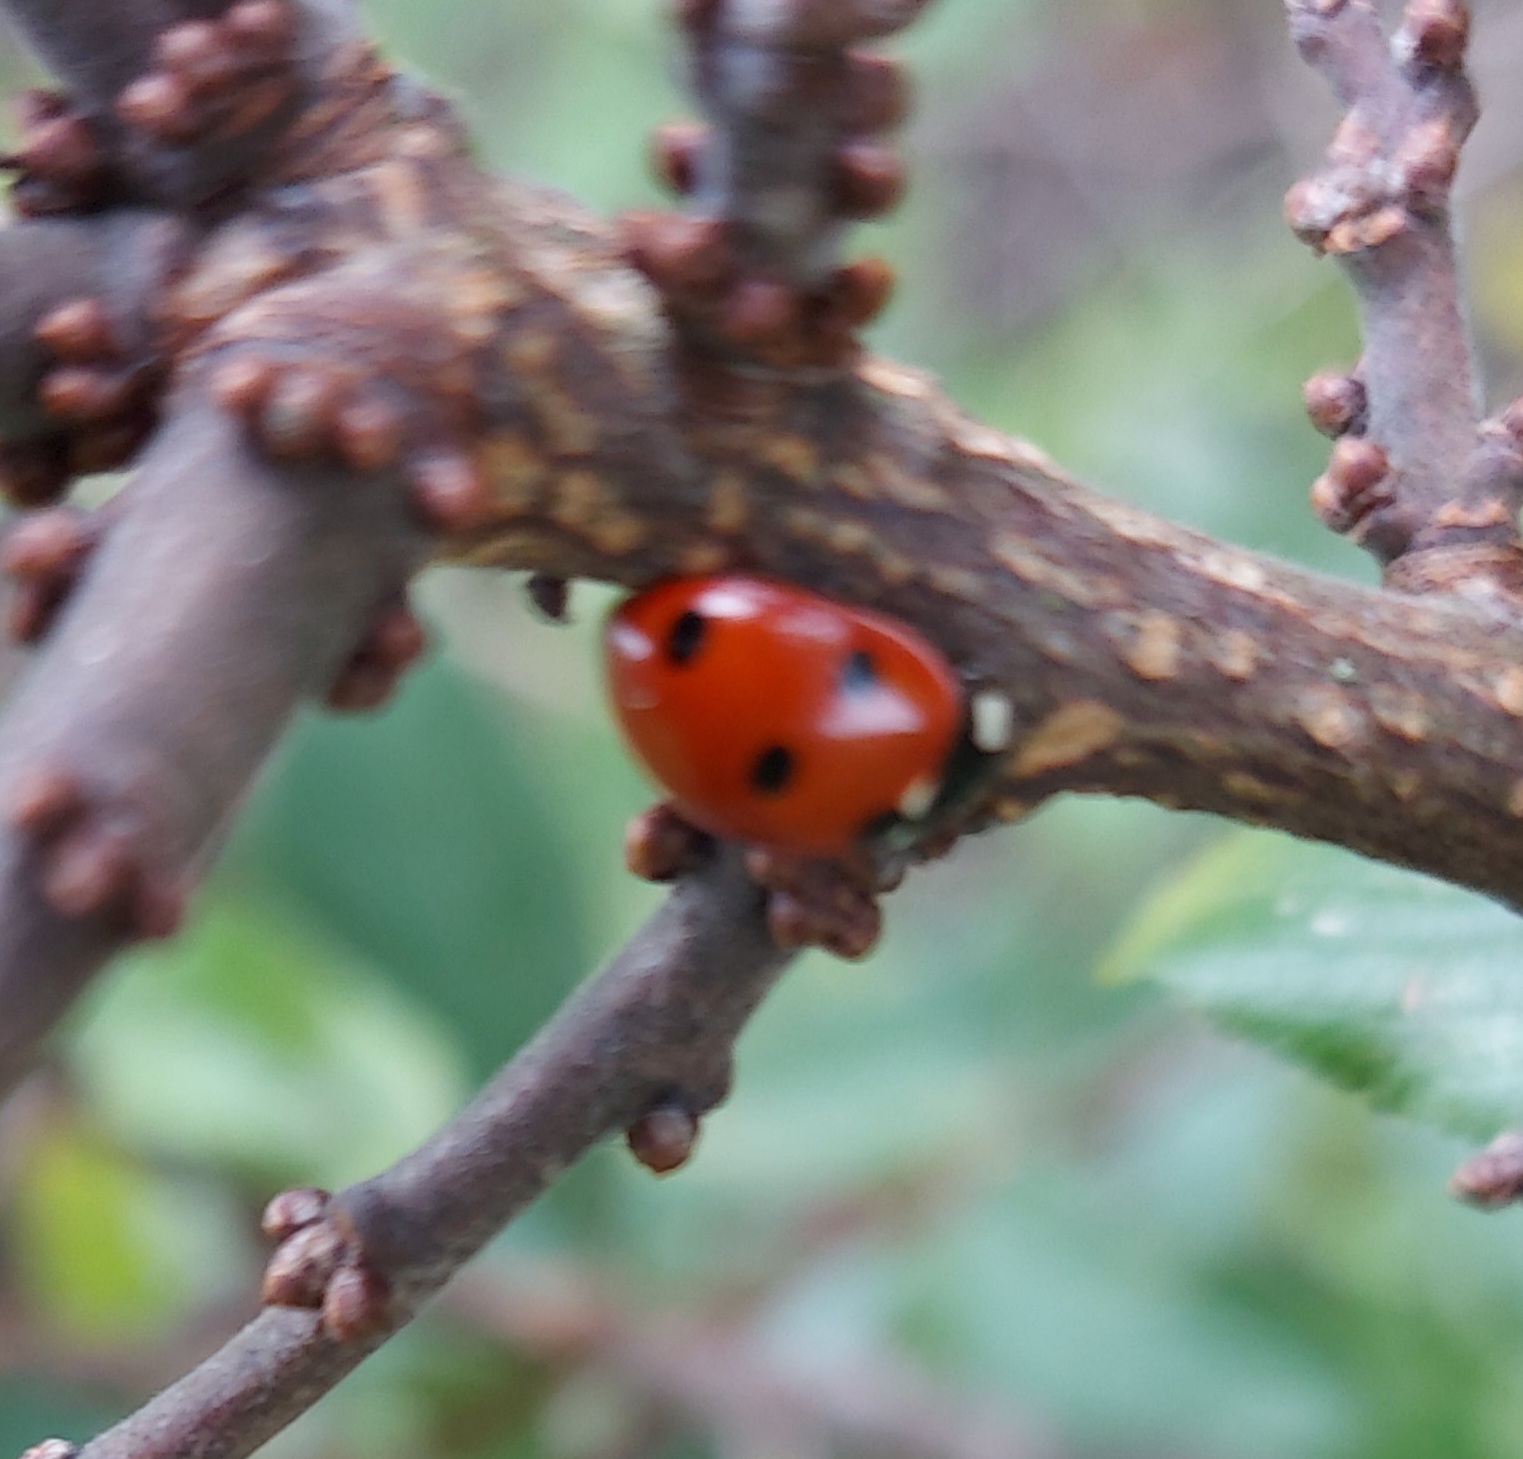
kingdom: Animalia
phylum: Arthropoda
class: Insecta
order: Coleoptera
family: Coccinellidae
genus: Coccinella
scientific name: Coccinella septempunctata
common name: Sevenspotted lady beetle
